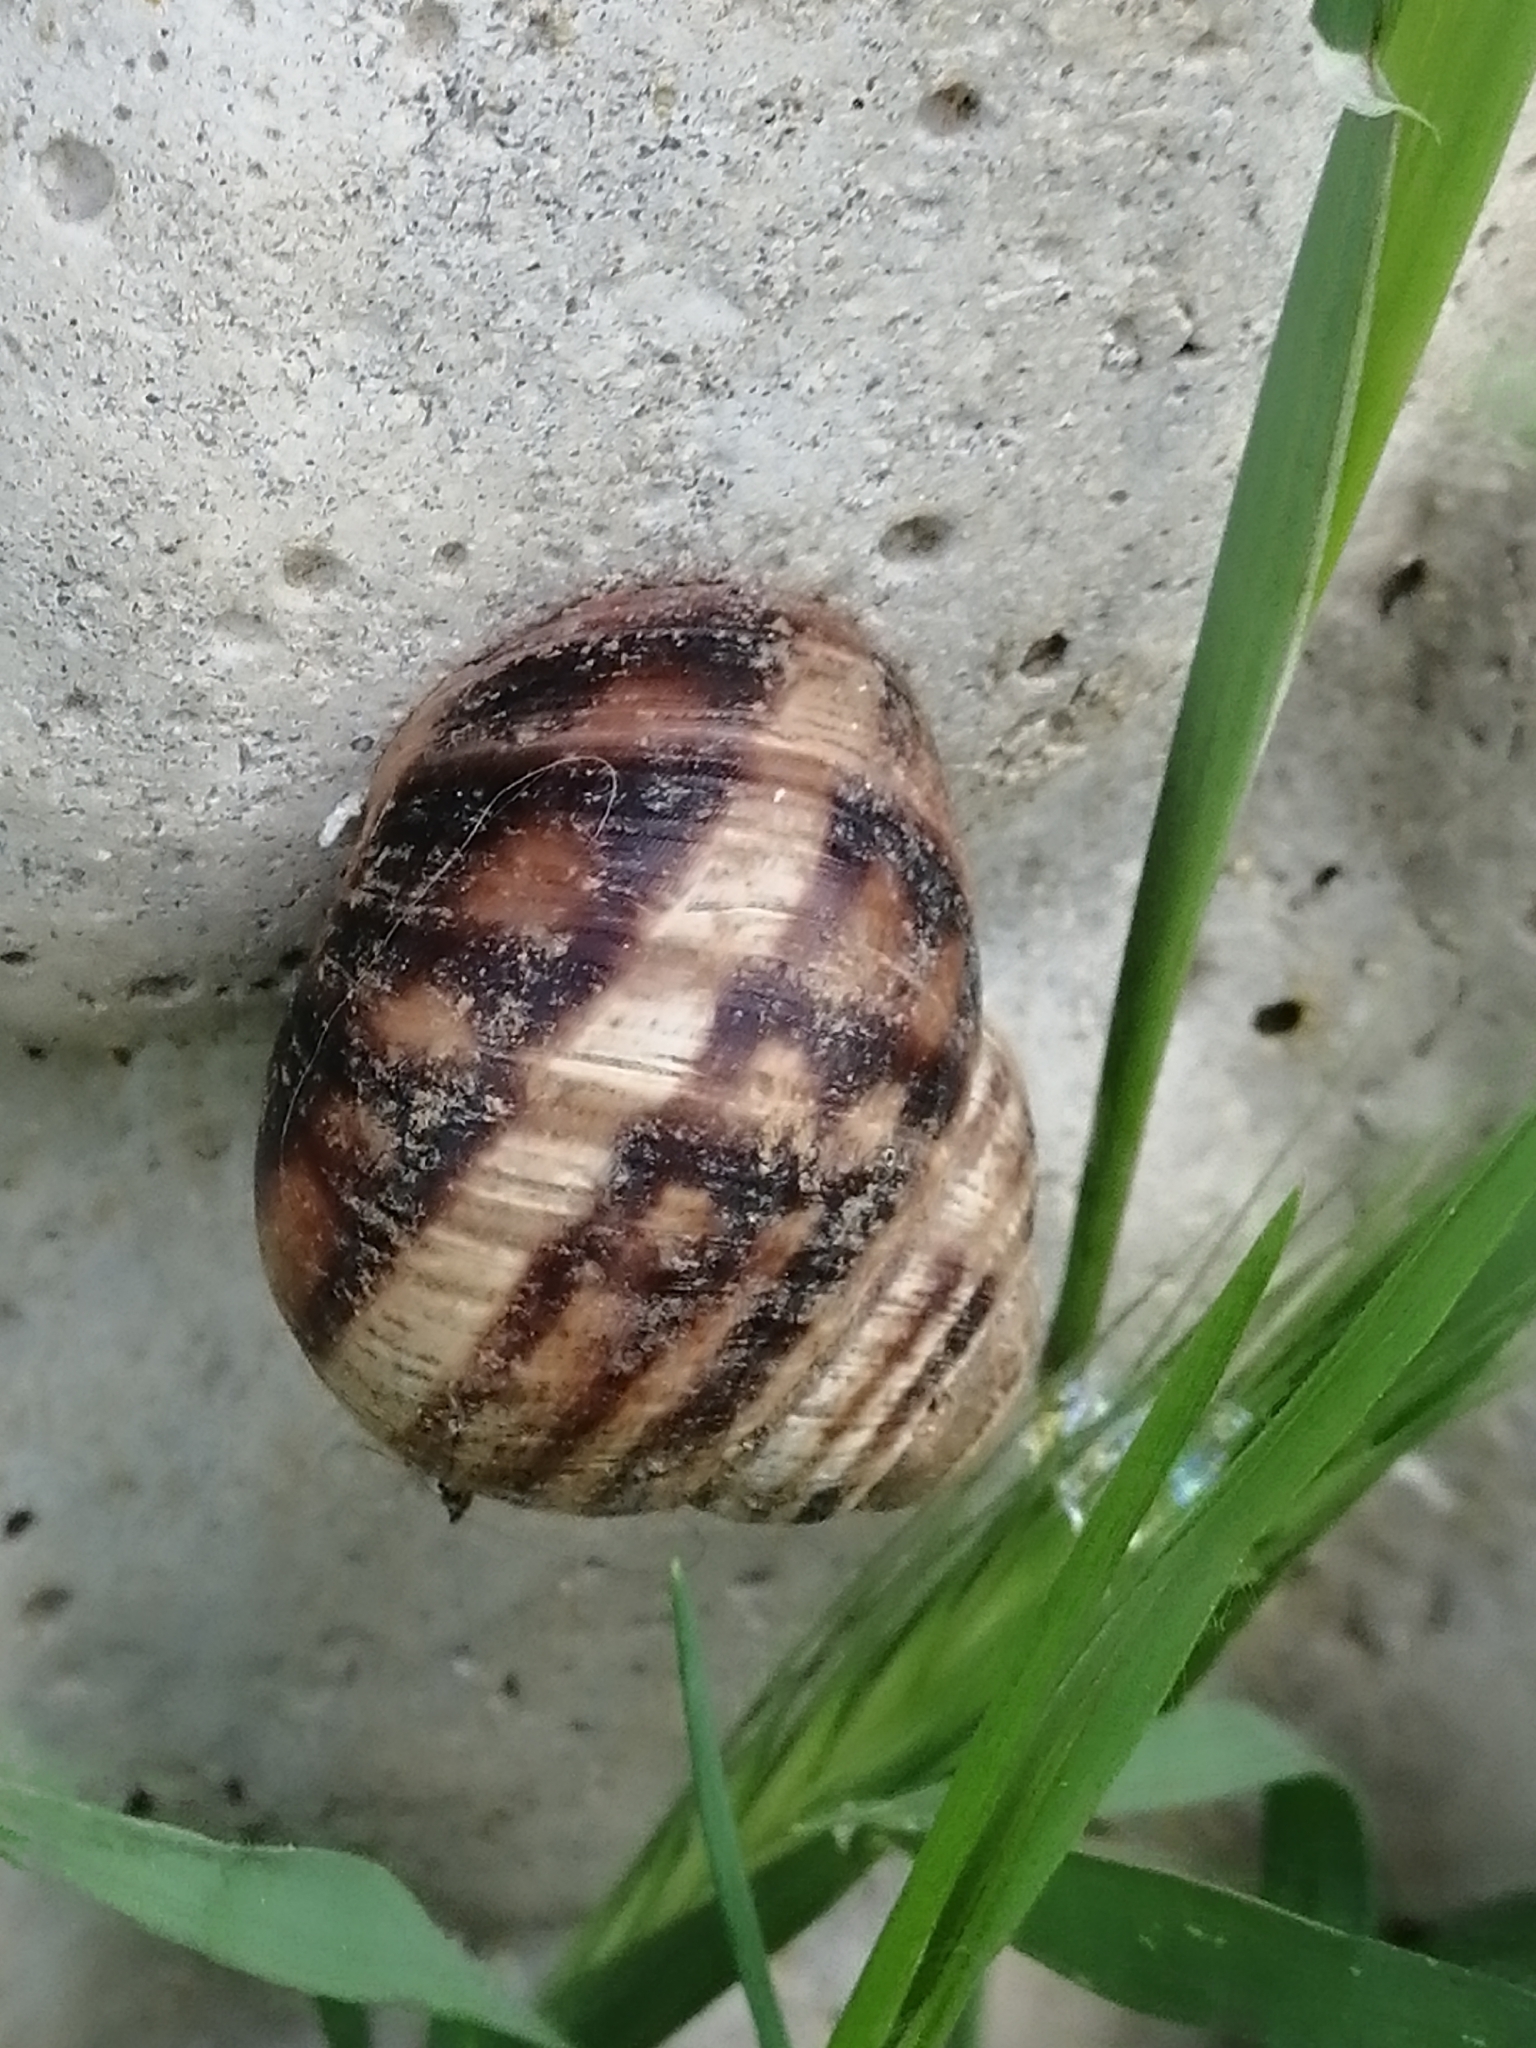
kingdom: Animalia
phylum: Mollusca
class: Gastropoda
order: Stylommatophora
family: Helicidae
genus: Helix
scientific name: Helix albescens
